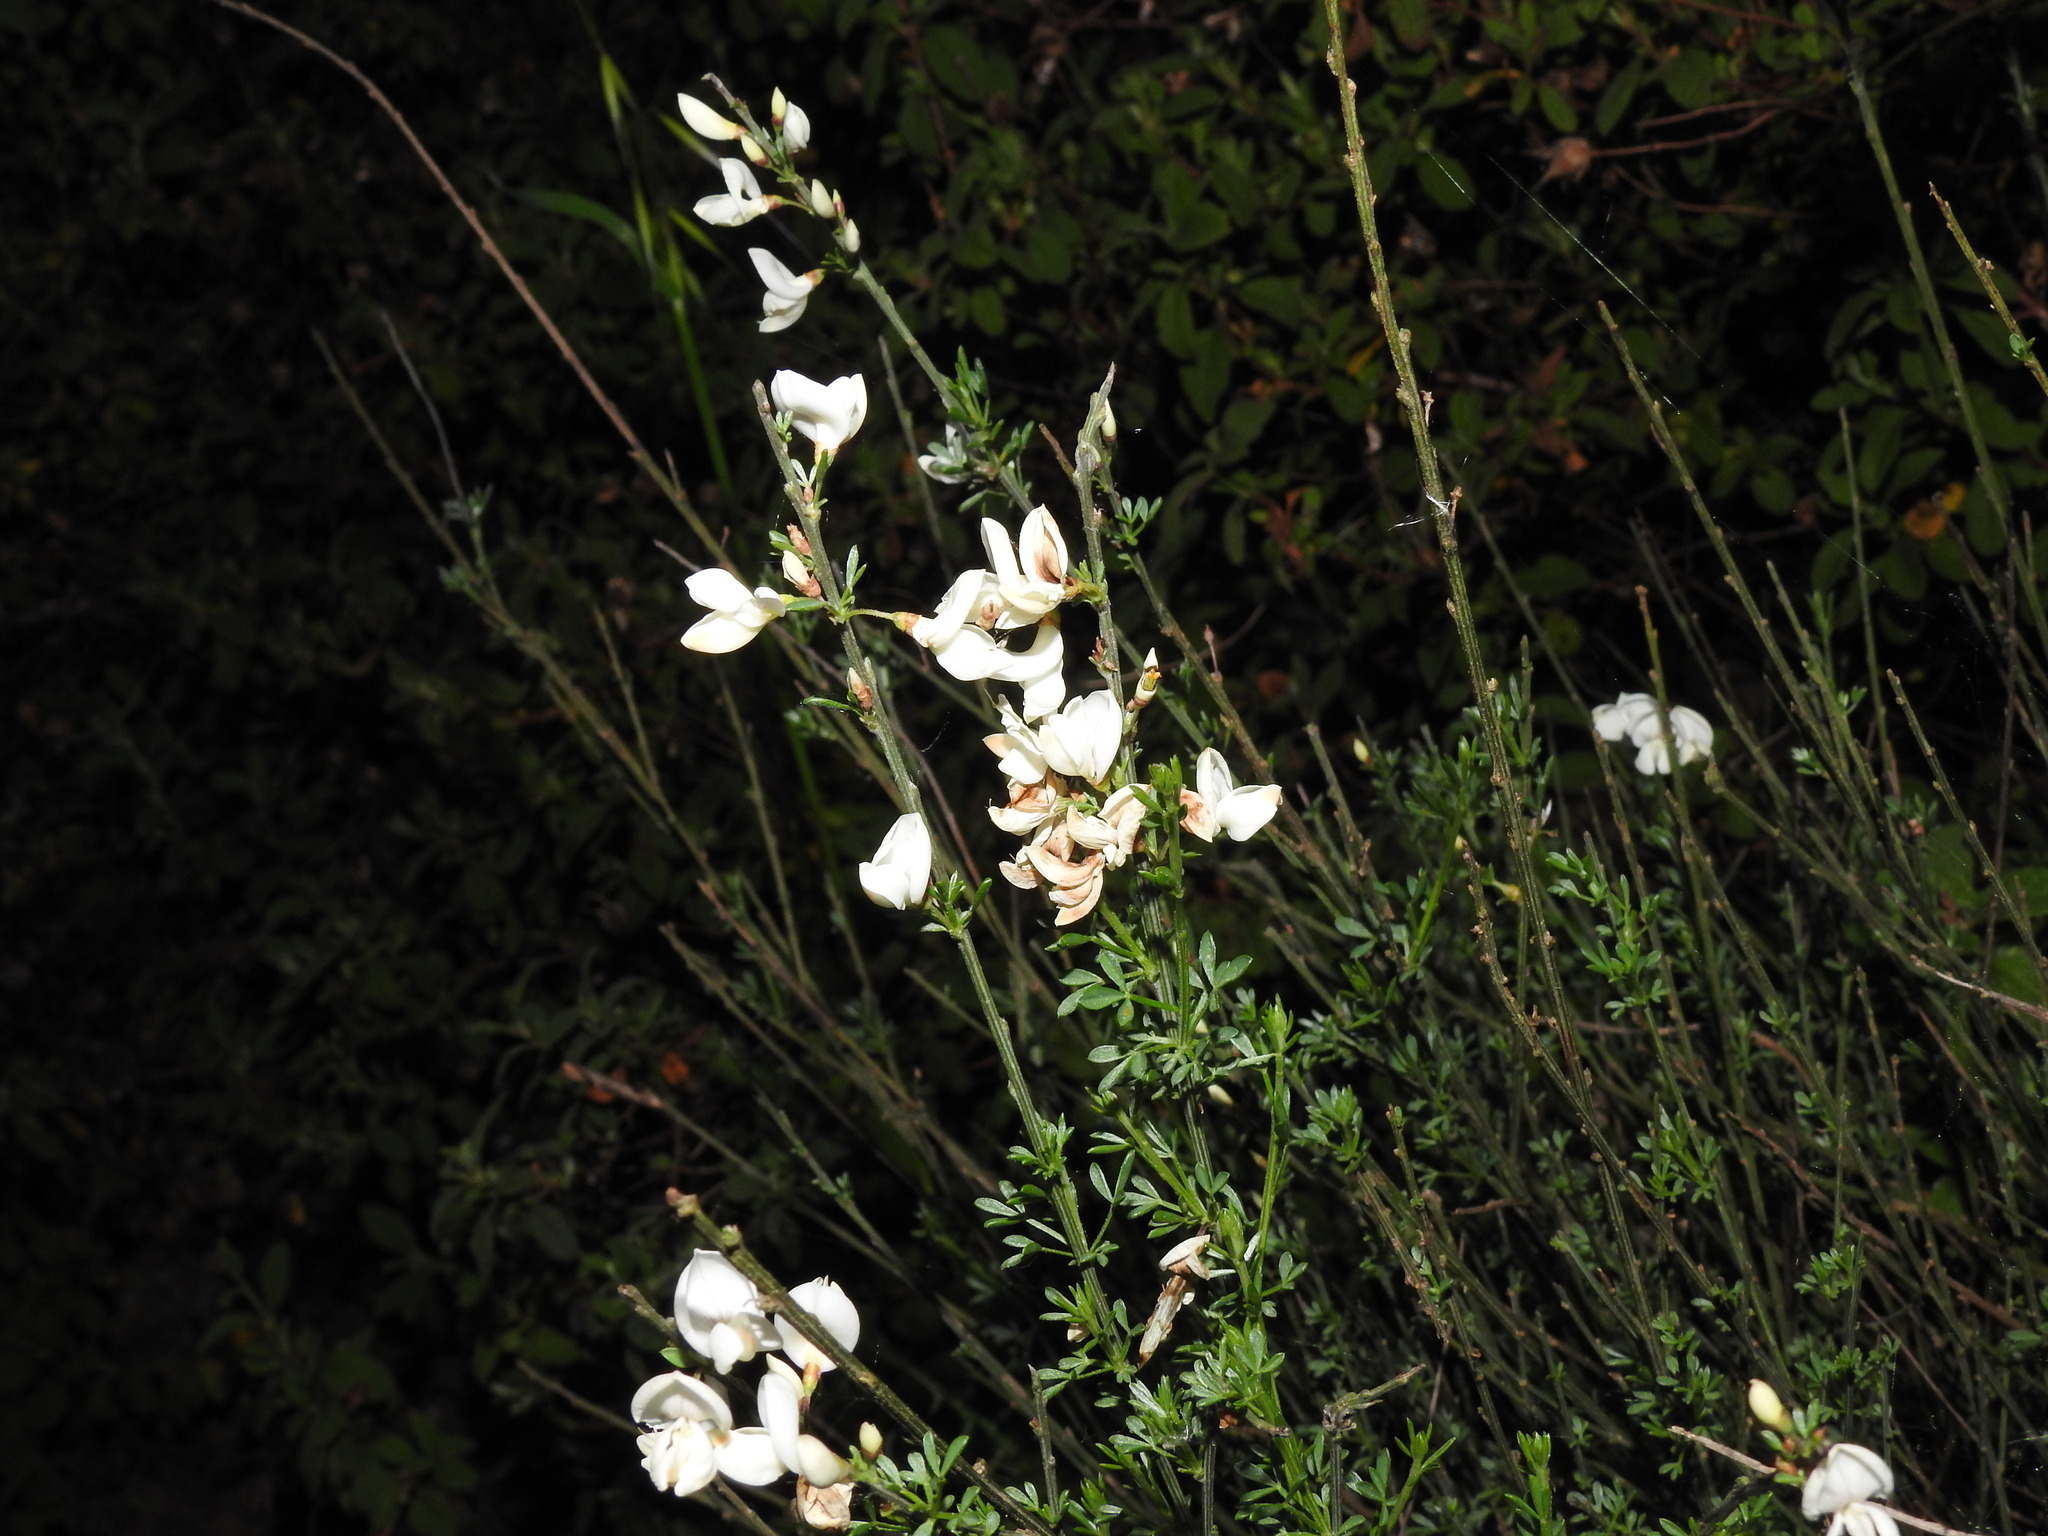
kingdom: Plantae
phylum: Tracheophyta
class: Magnoliopsida
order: Fabales
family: Fabaceae
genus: Cytisus
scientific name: Cytisus multiflorus
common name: White broom
